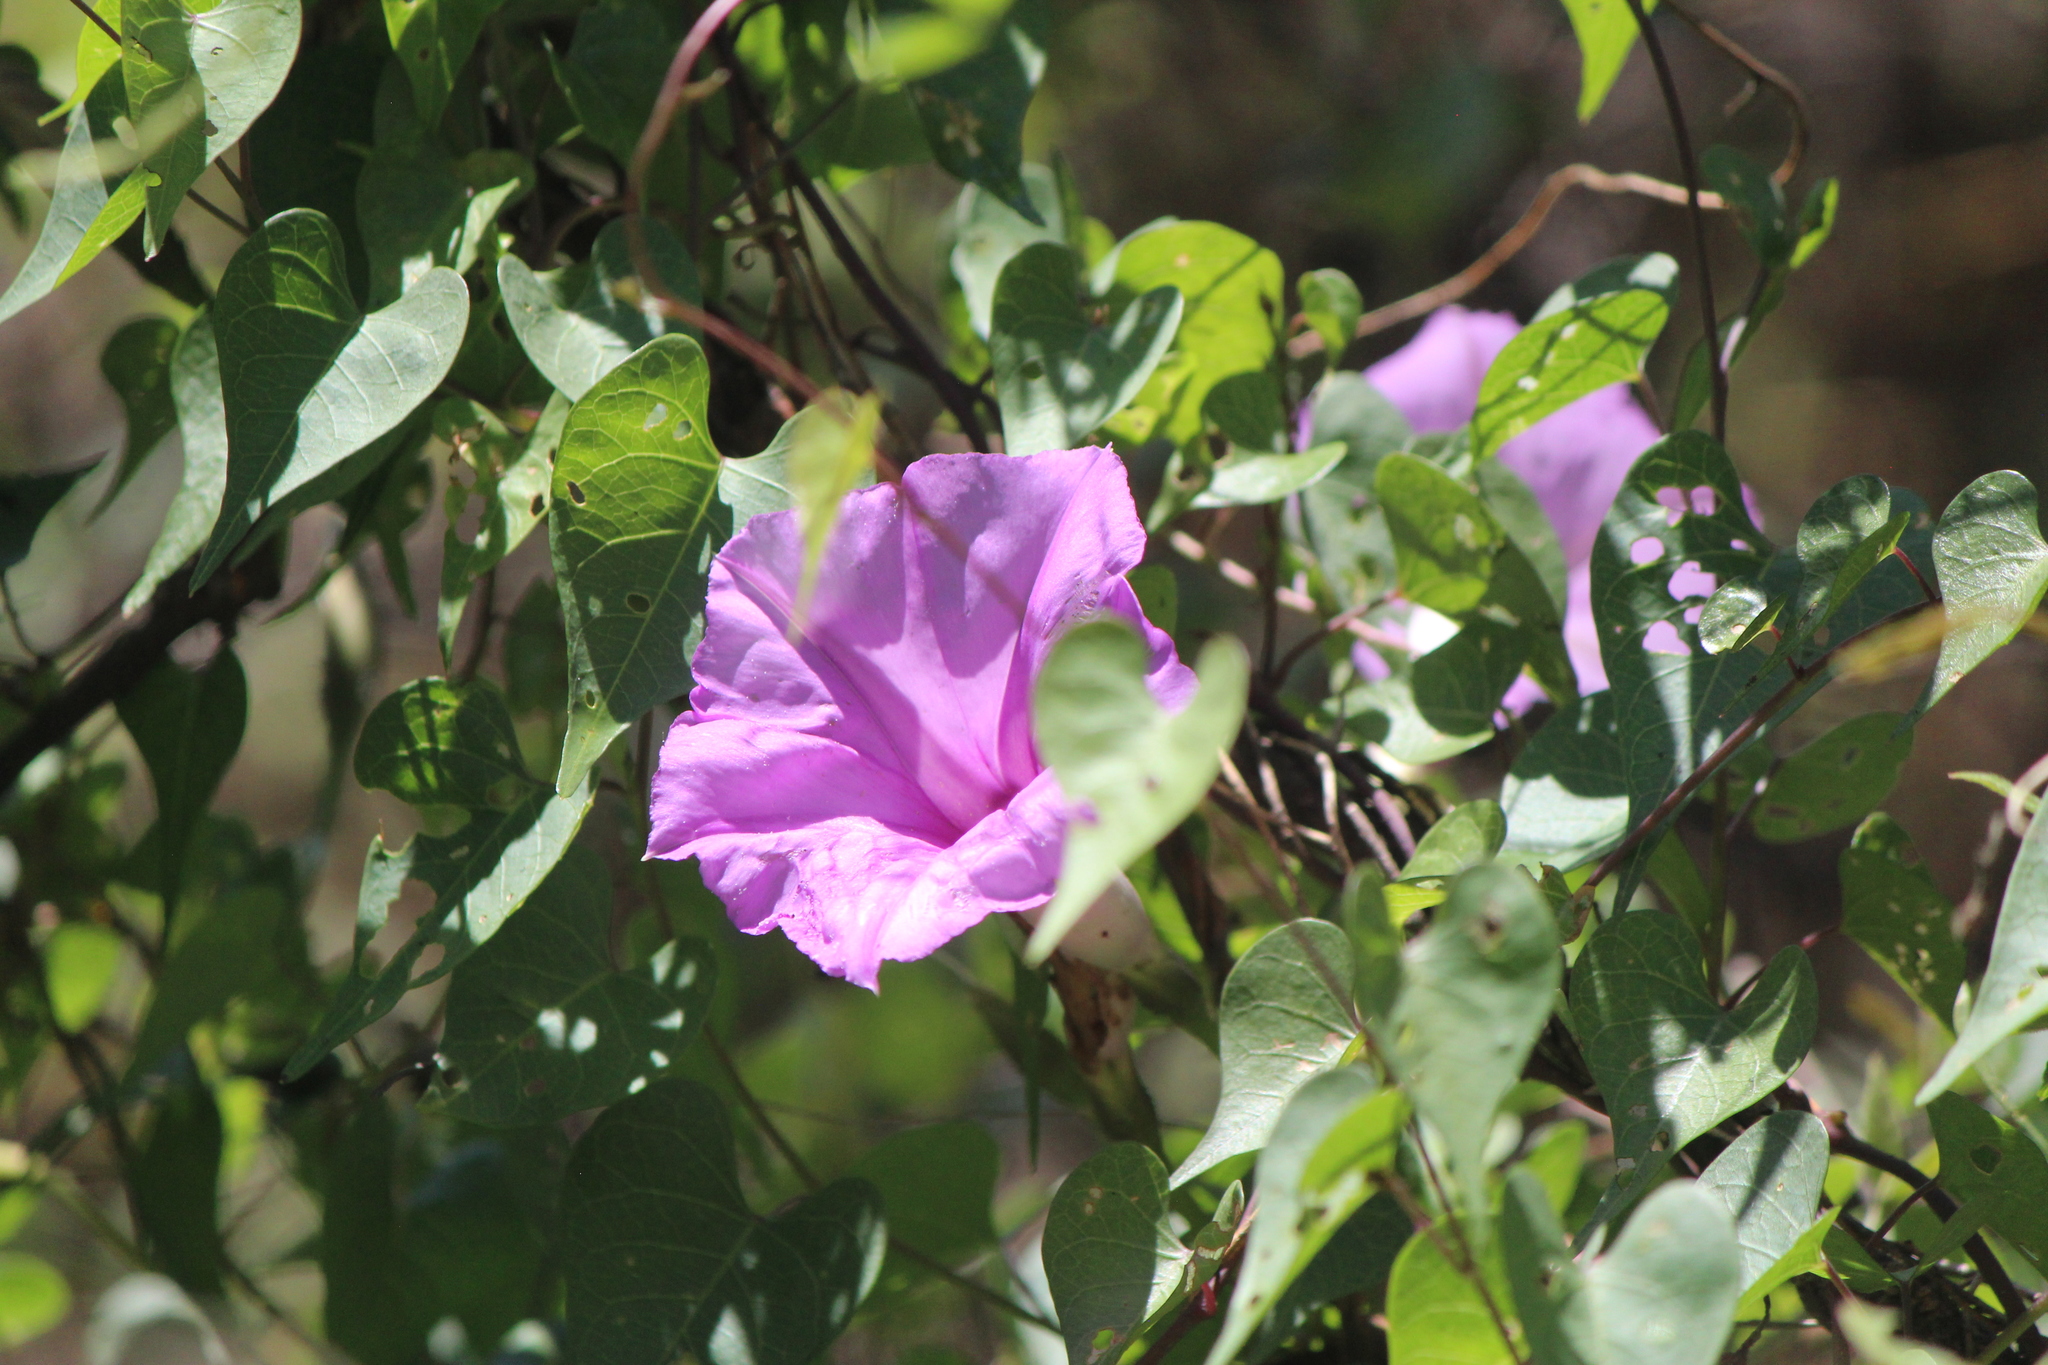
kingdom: Plantae
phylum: Tracheophyta
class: Magnoliopsida
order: Solanales
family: Convolvulaceae
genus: Ipomoea
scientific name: Ipomoea lozanii
